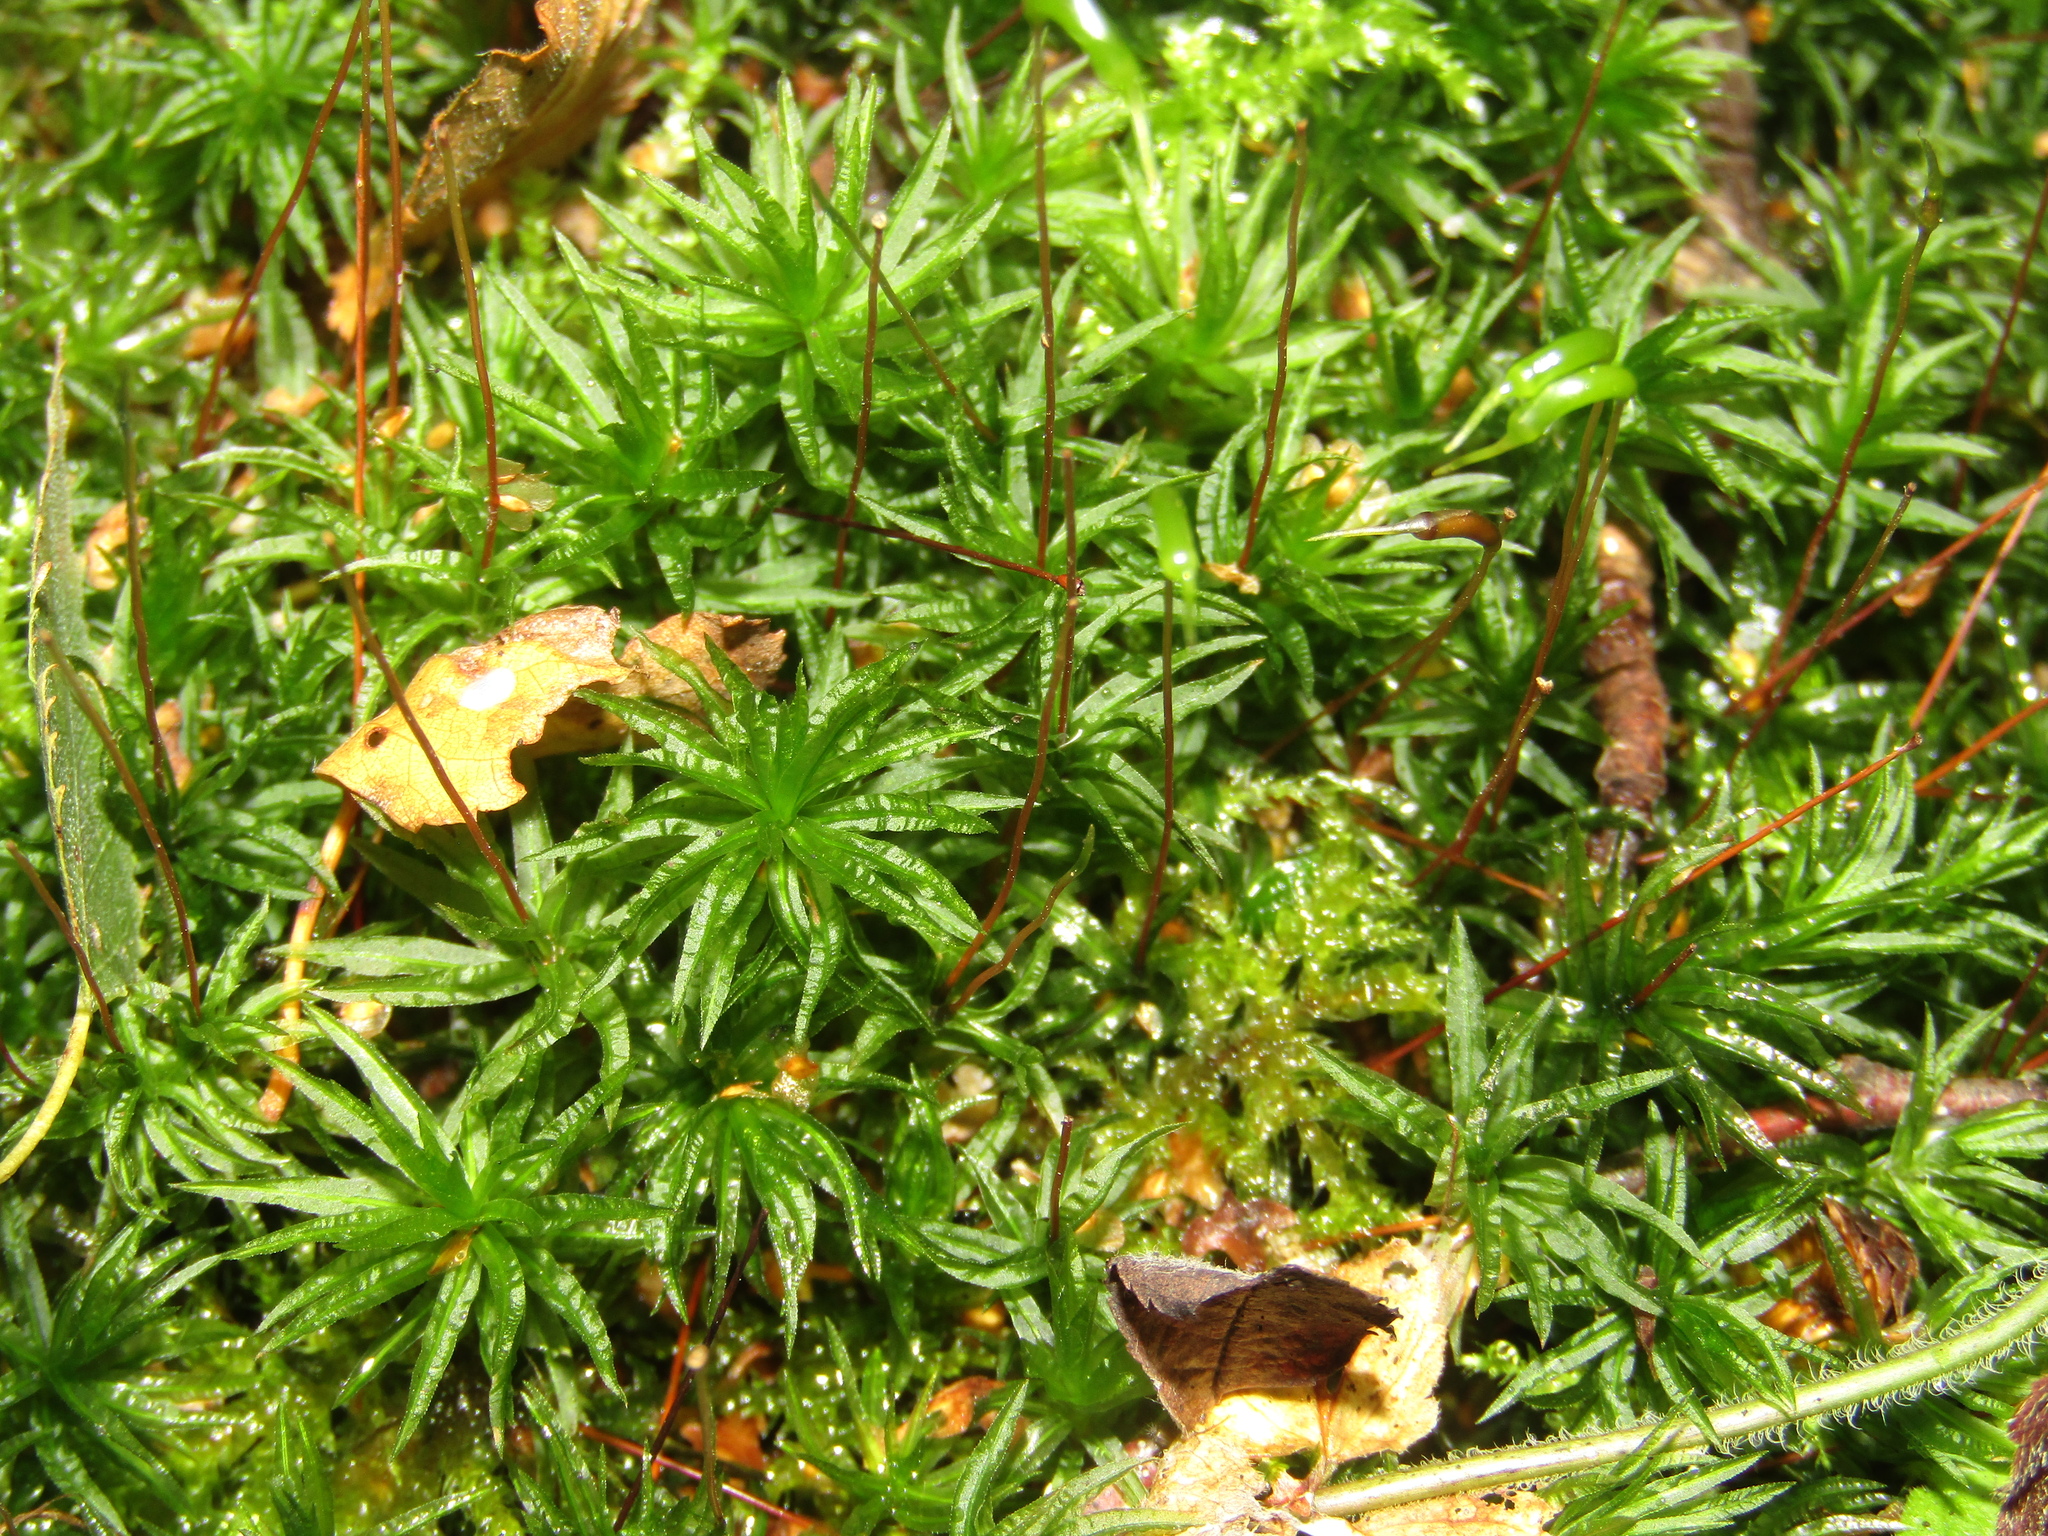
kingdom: Plantae
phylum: Bryophyta
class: Polytrichopsida
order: Polytrichales
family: Polytrichaceae
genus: Atrichum
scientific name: Atrichum undulatum
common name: Common smoothcap
